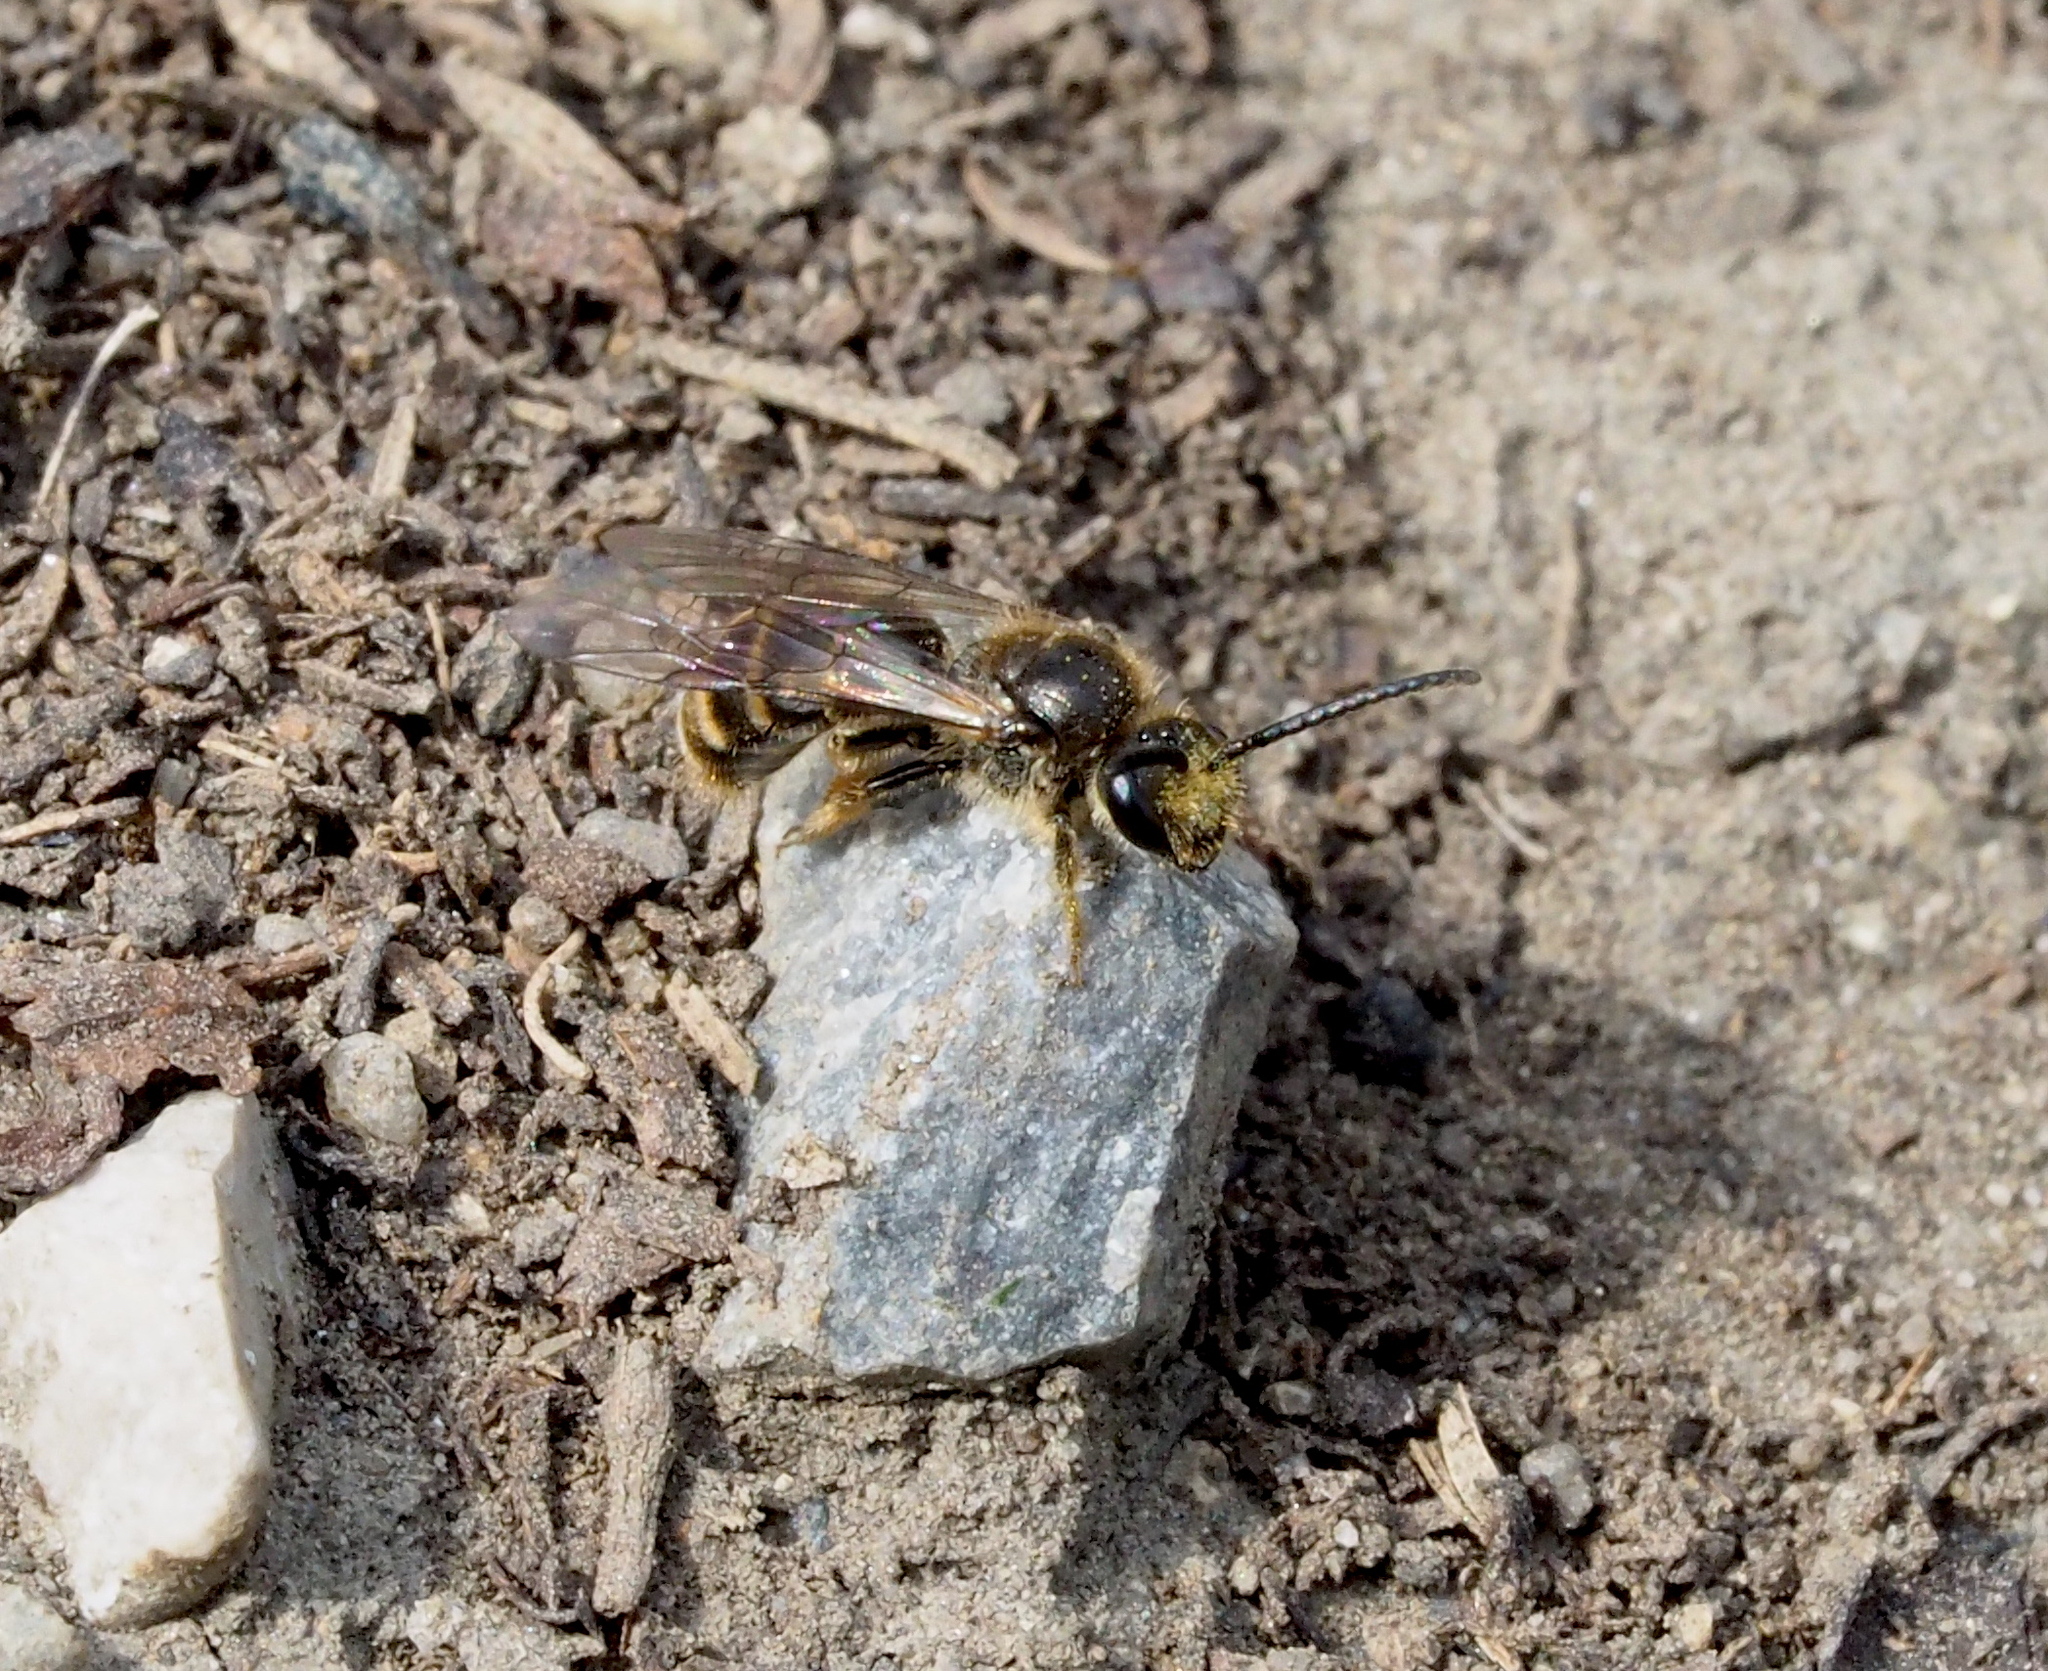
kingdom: Animalia
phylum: Arthropoda
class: Insecta
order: Hymenoptera
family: Halictidae
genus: Lasioglossum
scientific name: Lasioglossum marginatum
